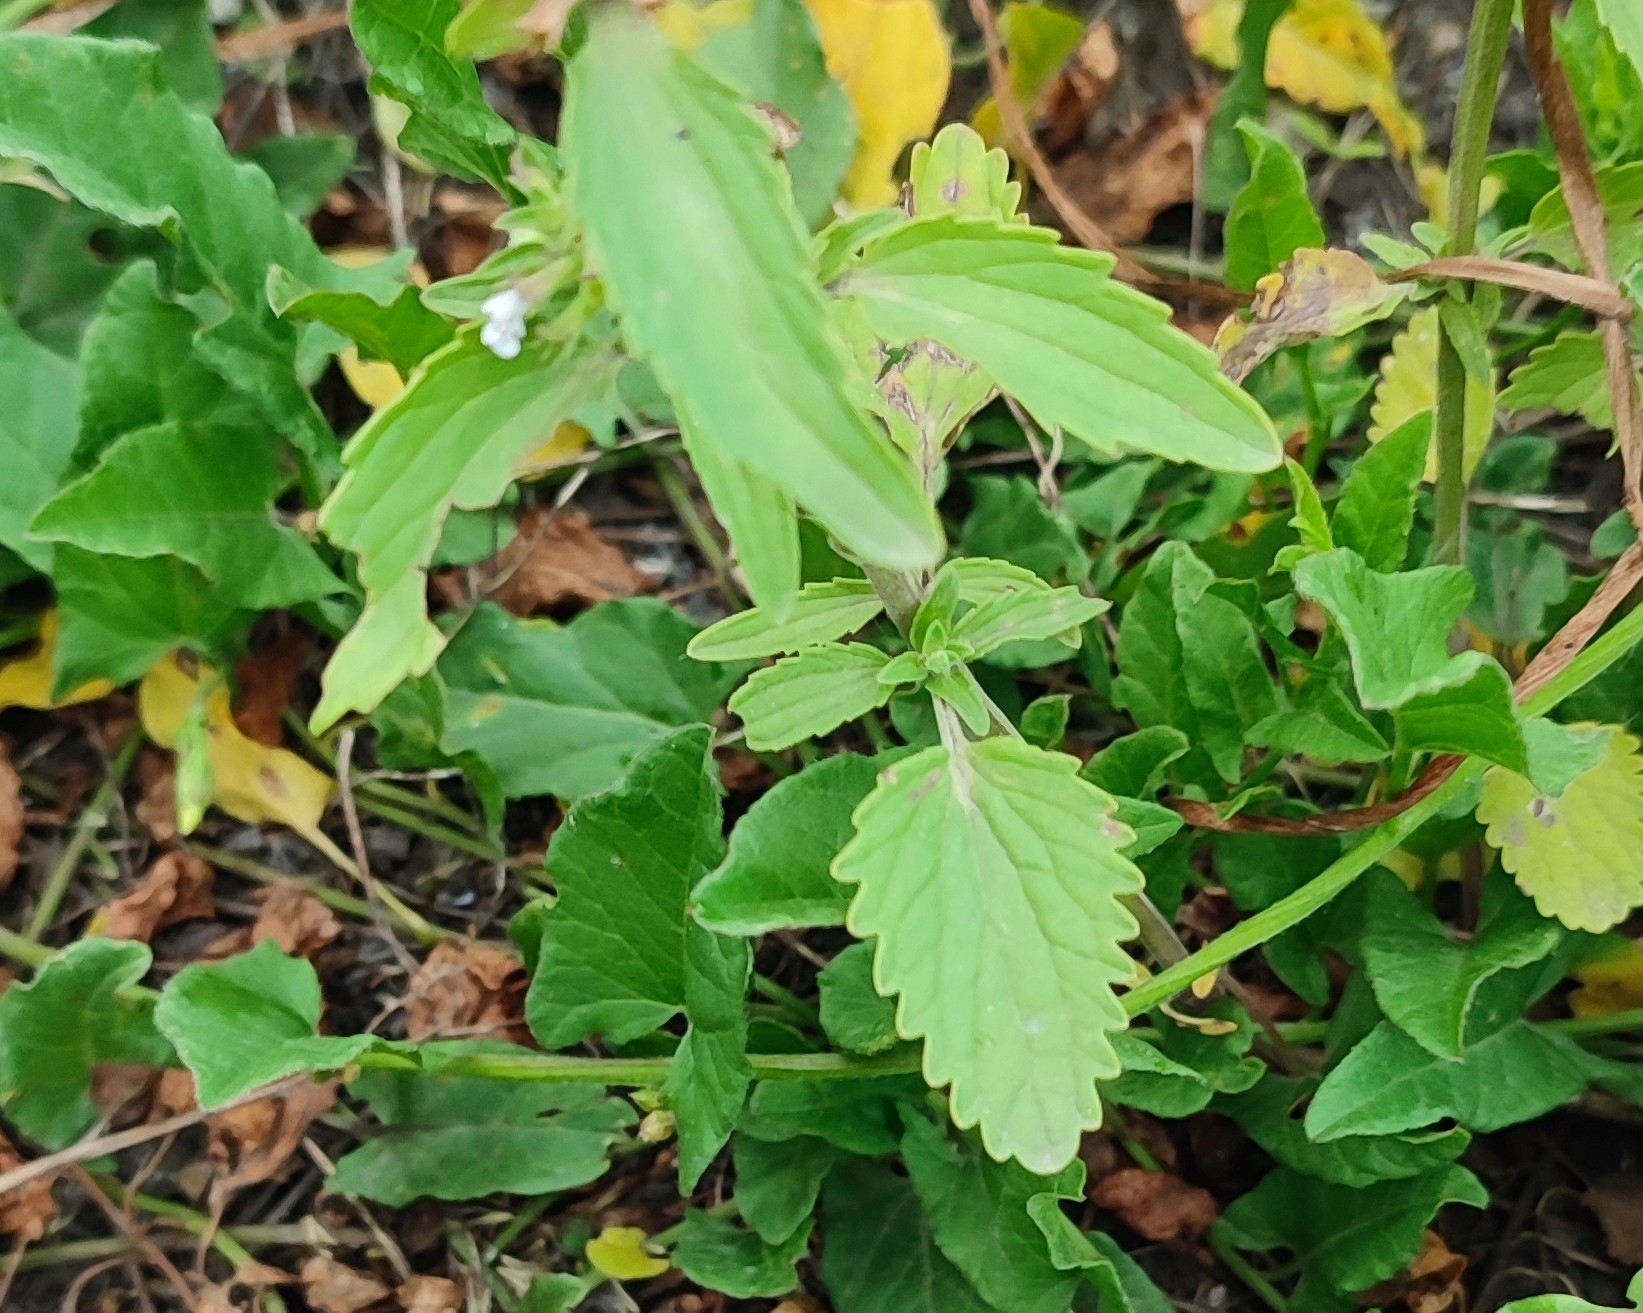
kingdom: Plantae
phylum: Tracheophyta
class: Magnoliopsida
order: Lamiales
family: Lamiaceae
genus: Dracocephalum
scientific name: Dracocephalum thymiflorum
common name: Thymeleaf dragonhead
